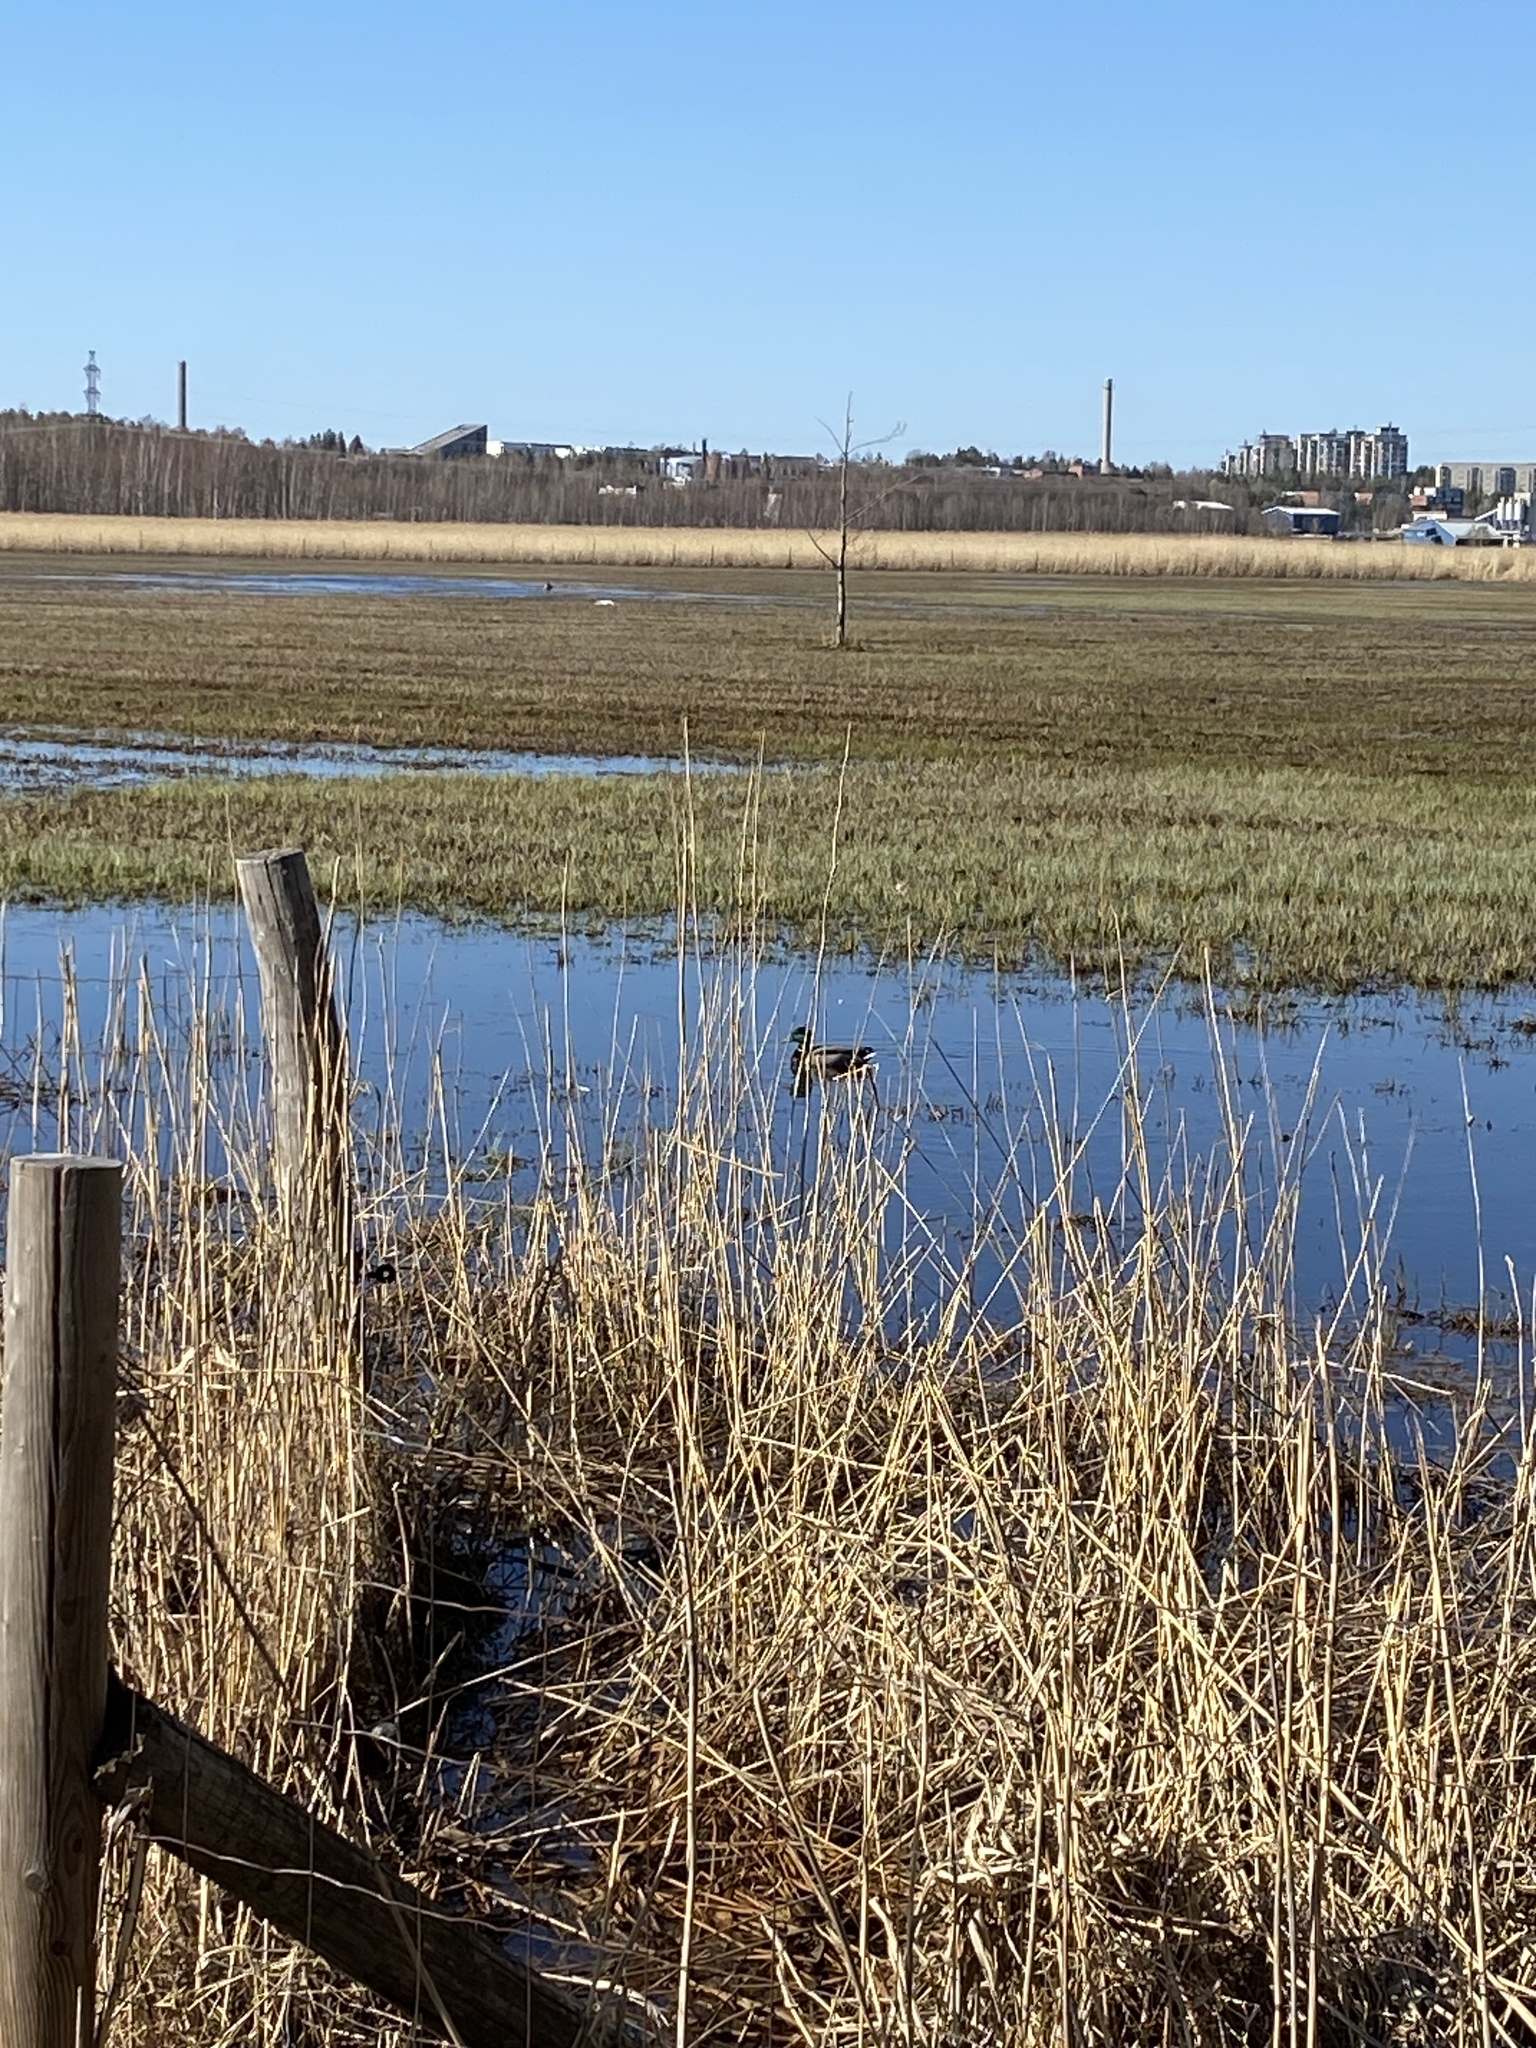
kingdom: Animalia
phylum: Chordata
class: Aves
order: Anseriformes
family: Anatidae
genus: Anas
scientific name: Anas platyrhynchos
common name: Mallard
